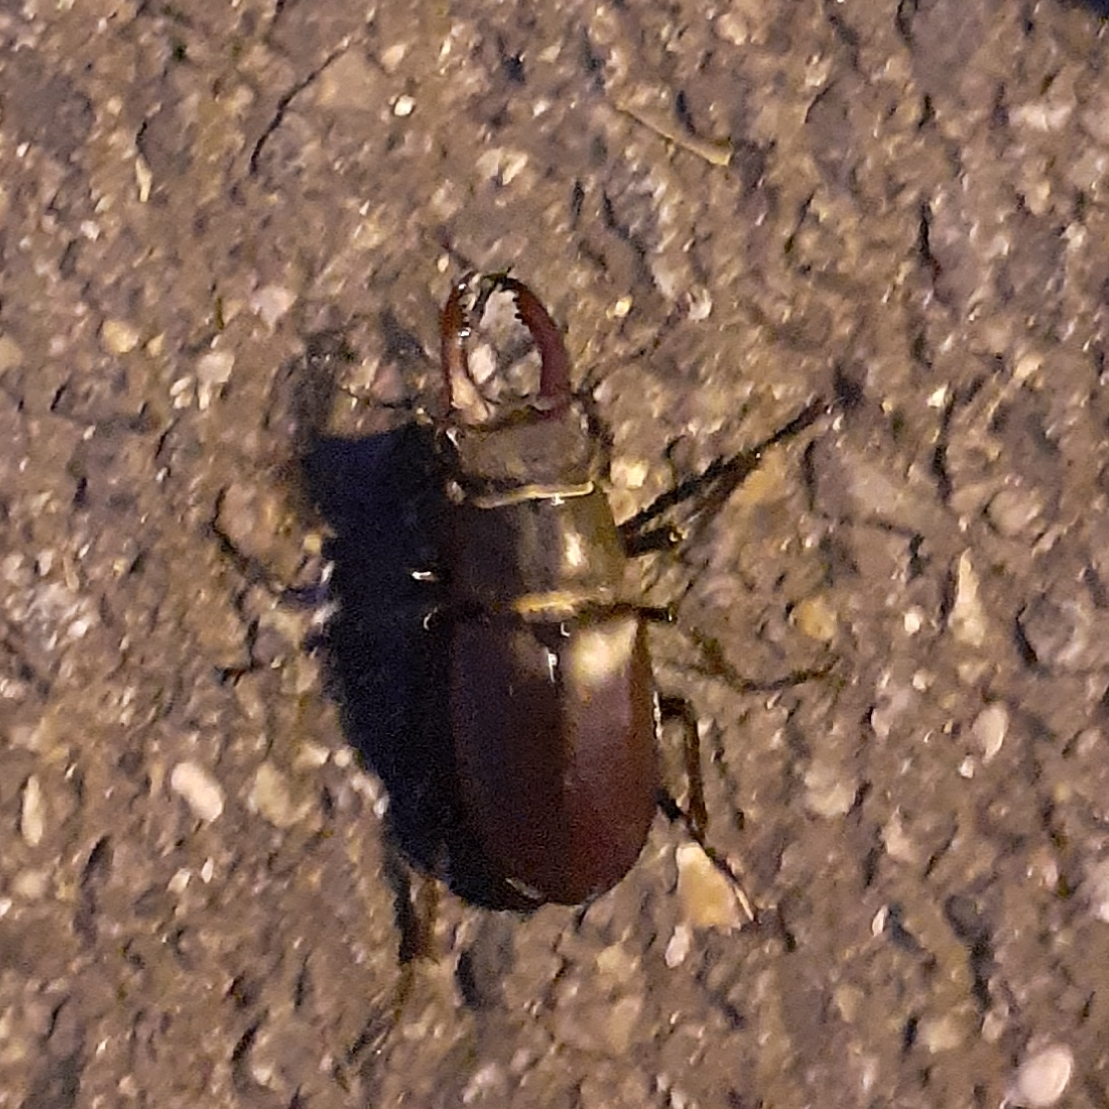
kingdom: Animalia
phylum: Arthropoda
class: Insecta
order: Coleoptera
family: Lucanidae
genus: Lucanus
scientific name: Lucanus cervus
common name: Stag beetle
